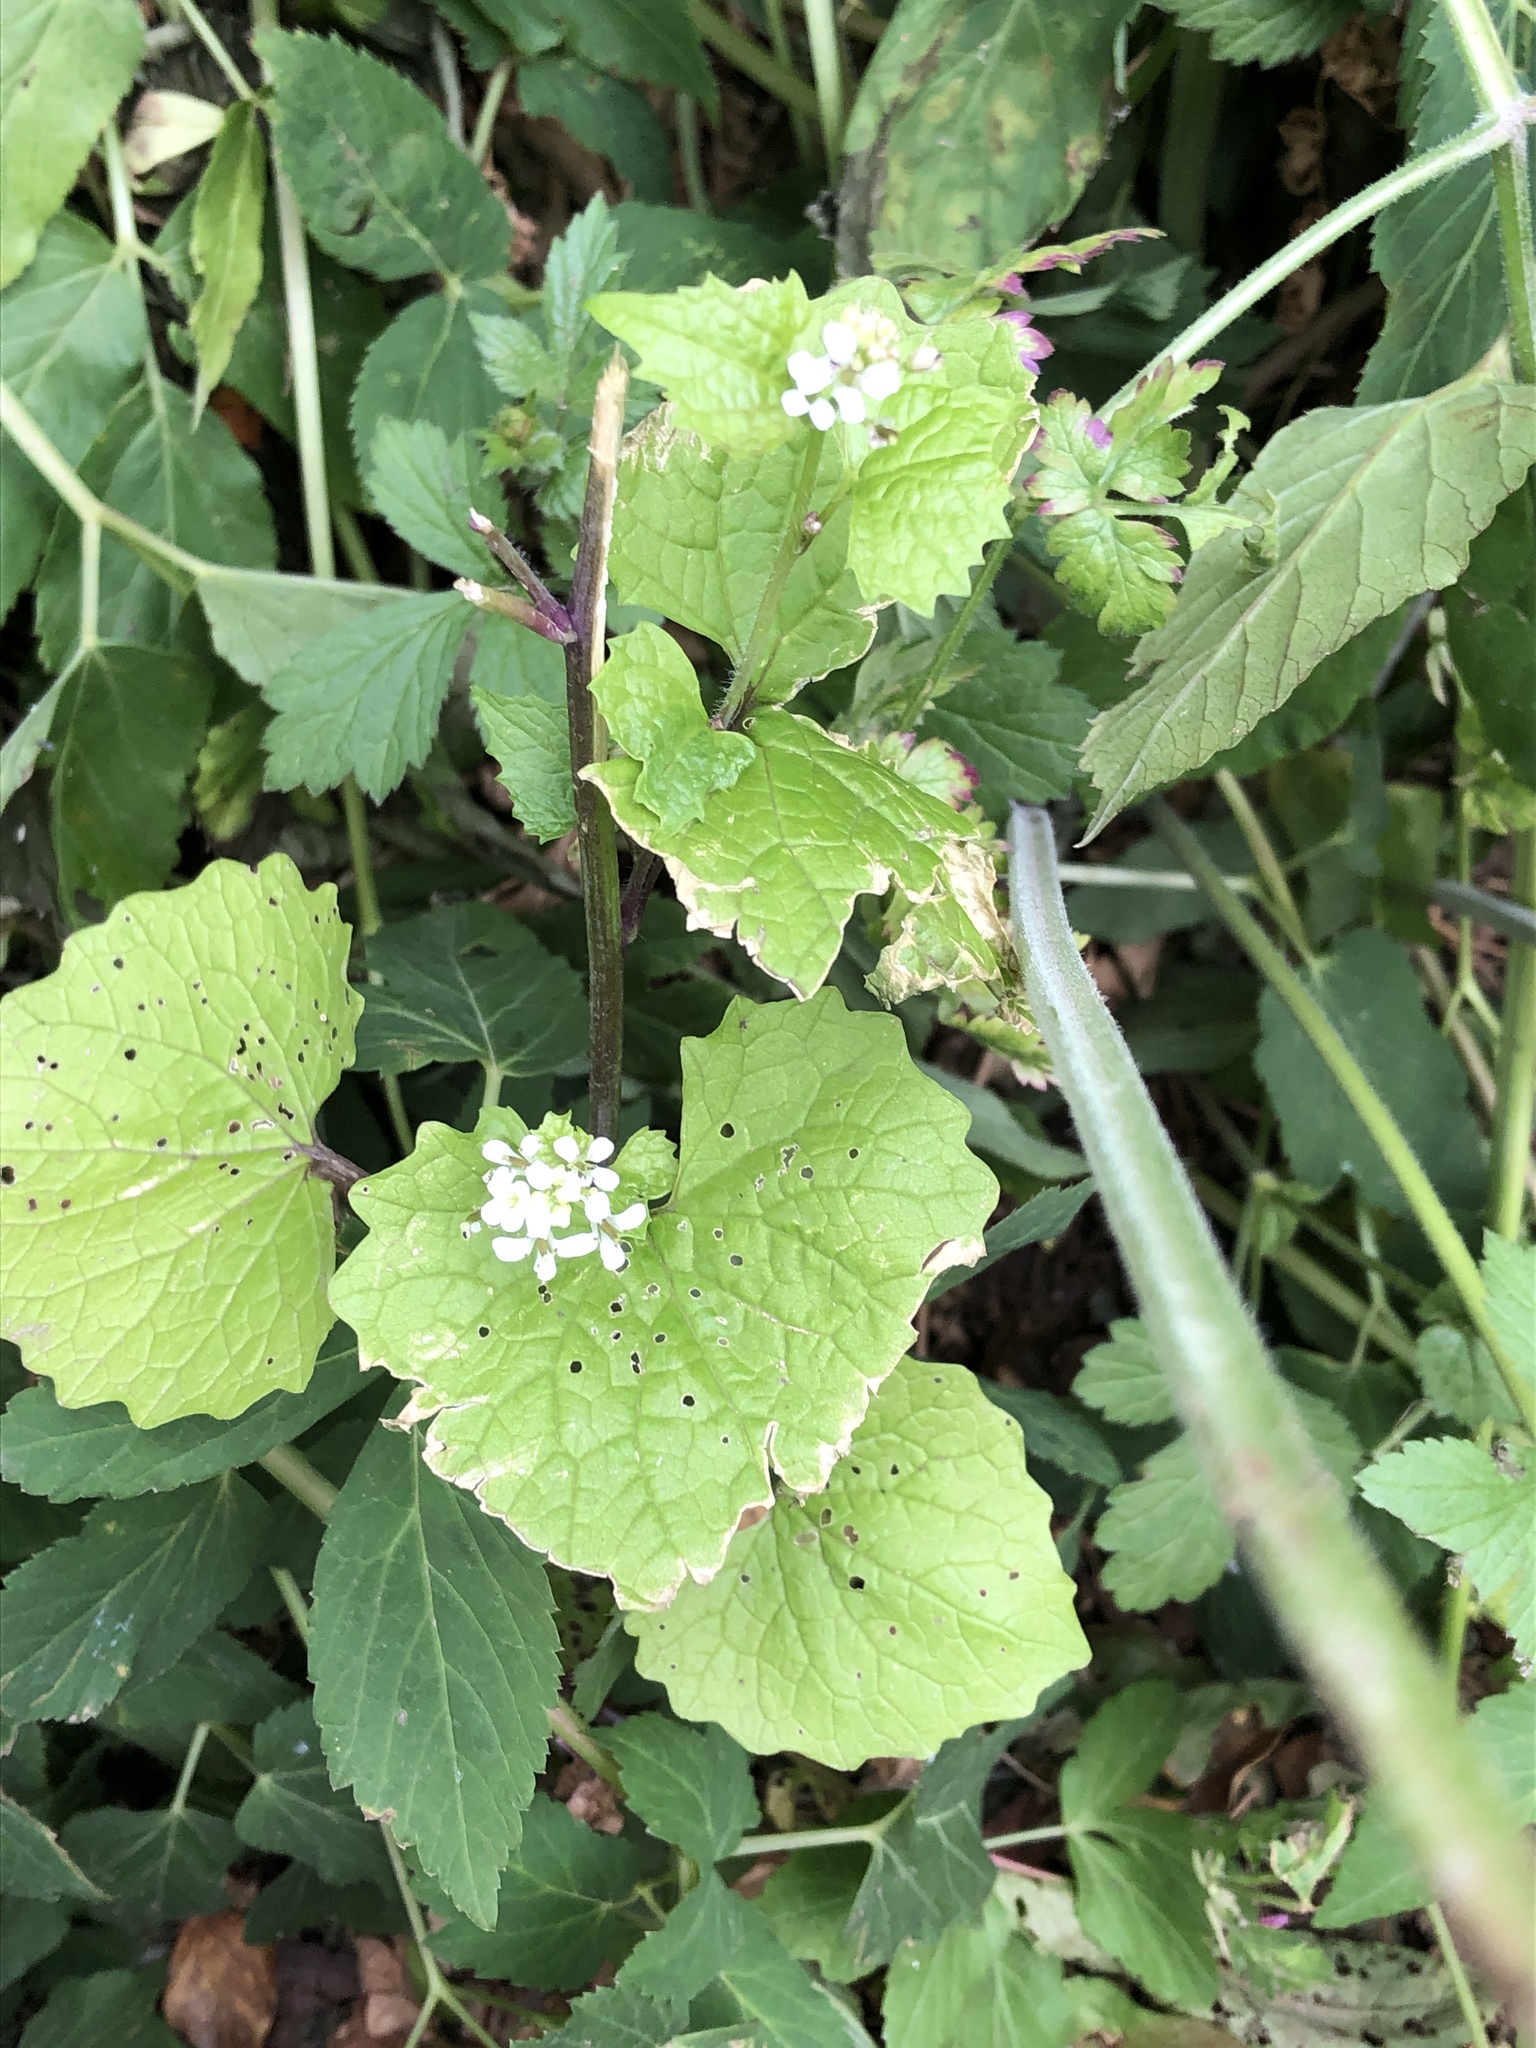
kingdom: Plantae
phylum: Tracheophyta
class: Magnoliopsida
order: Brassicales
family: Brassicaceae
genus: Alliaria
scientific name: Alliaria petiolata
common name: Garlic mustard
